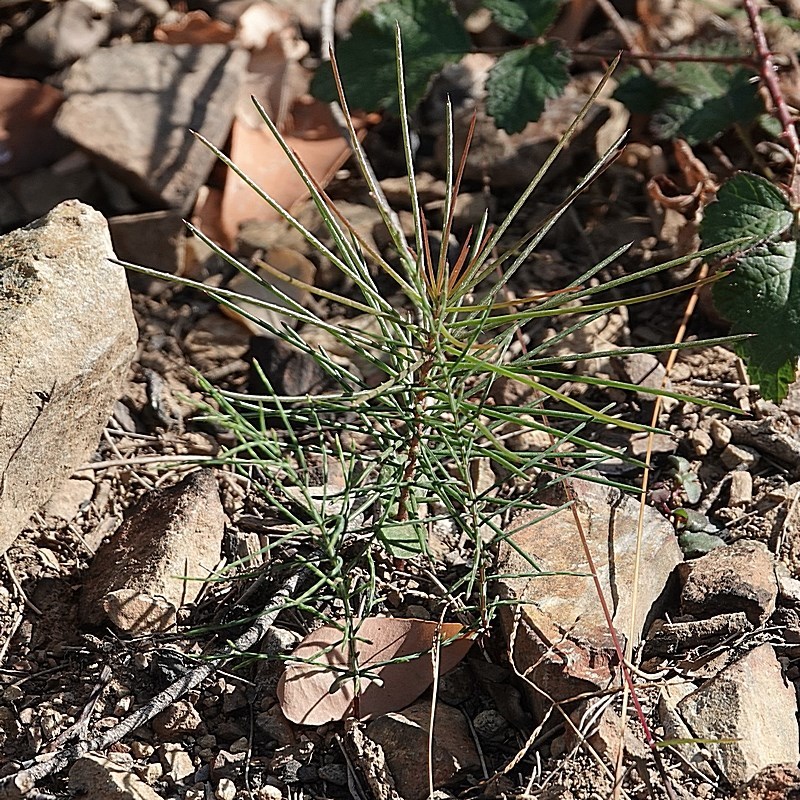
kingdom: Plantae
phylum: Tracheophyta
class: Magnoliopsida
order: Proteales
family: Proteaceae
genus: Hakea
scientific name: Hakea macraeana
